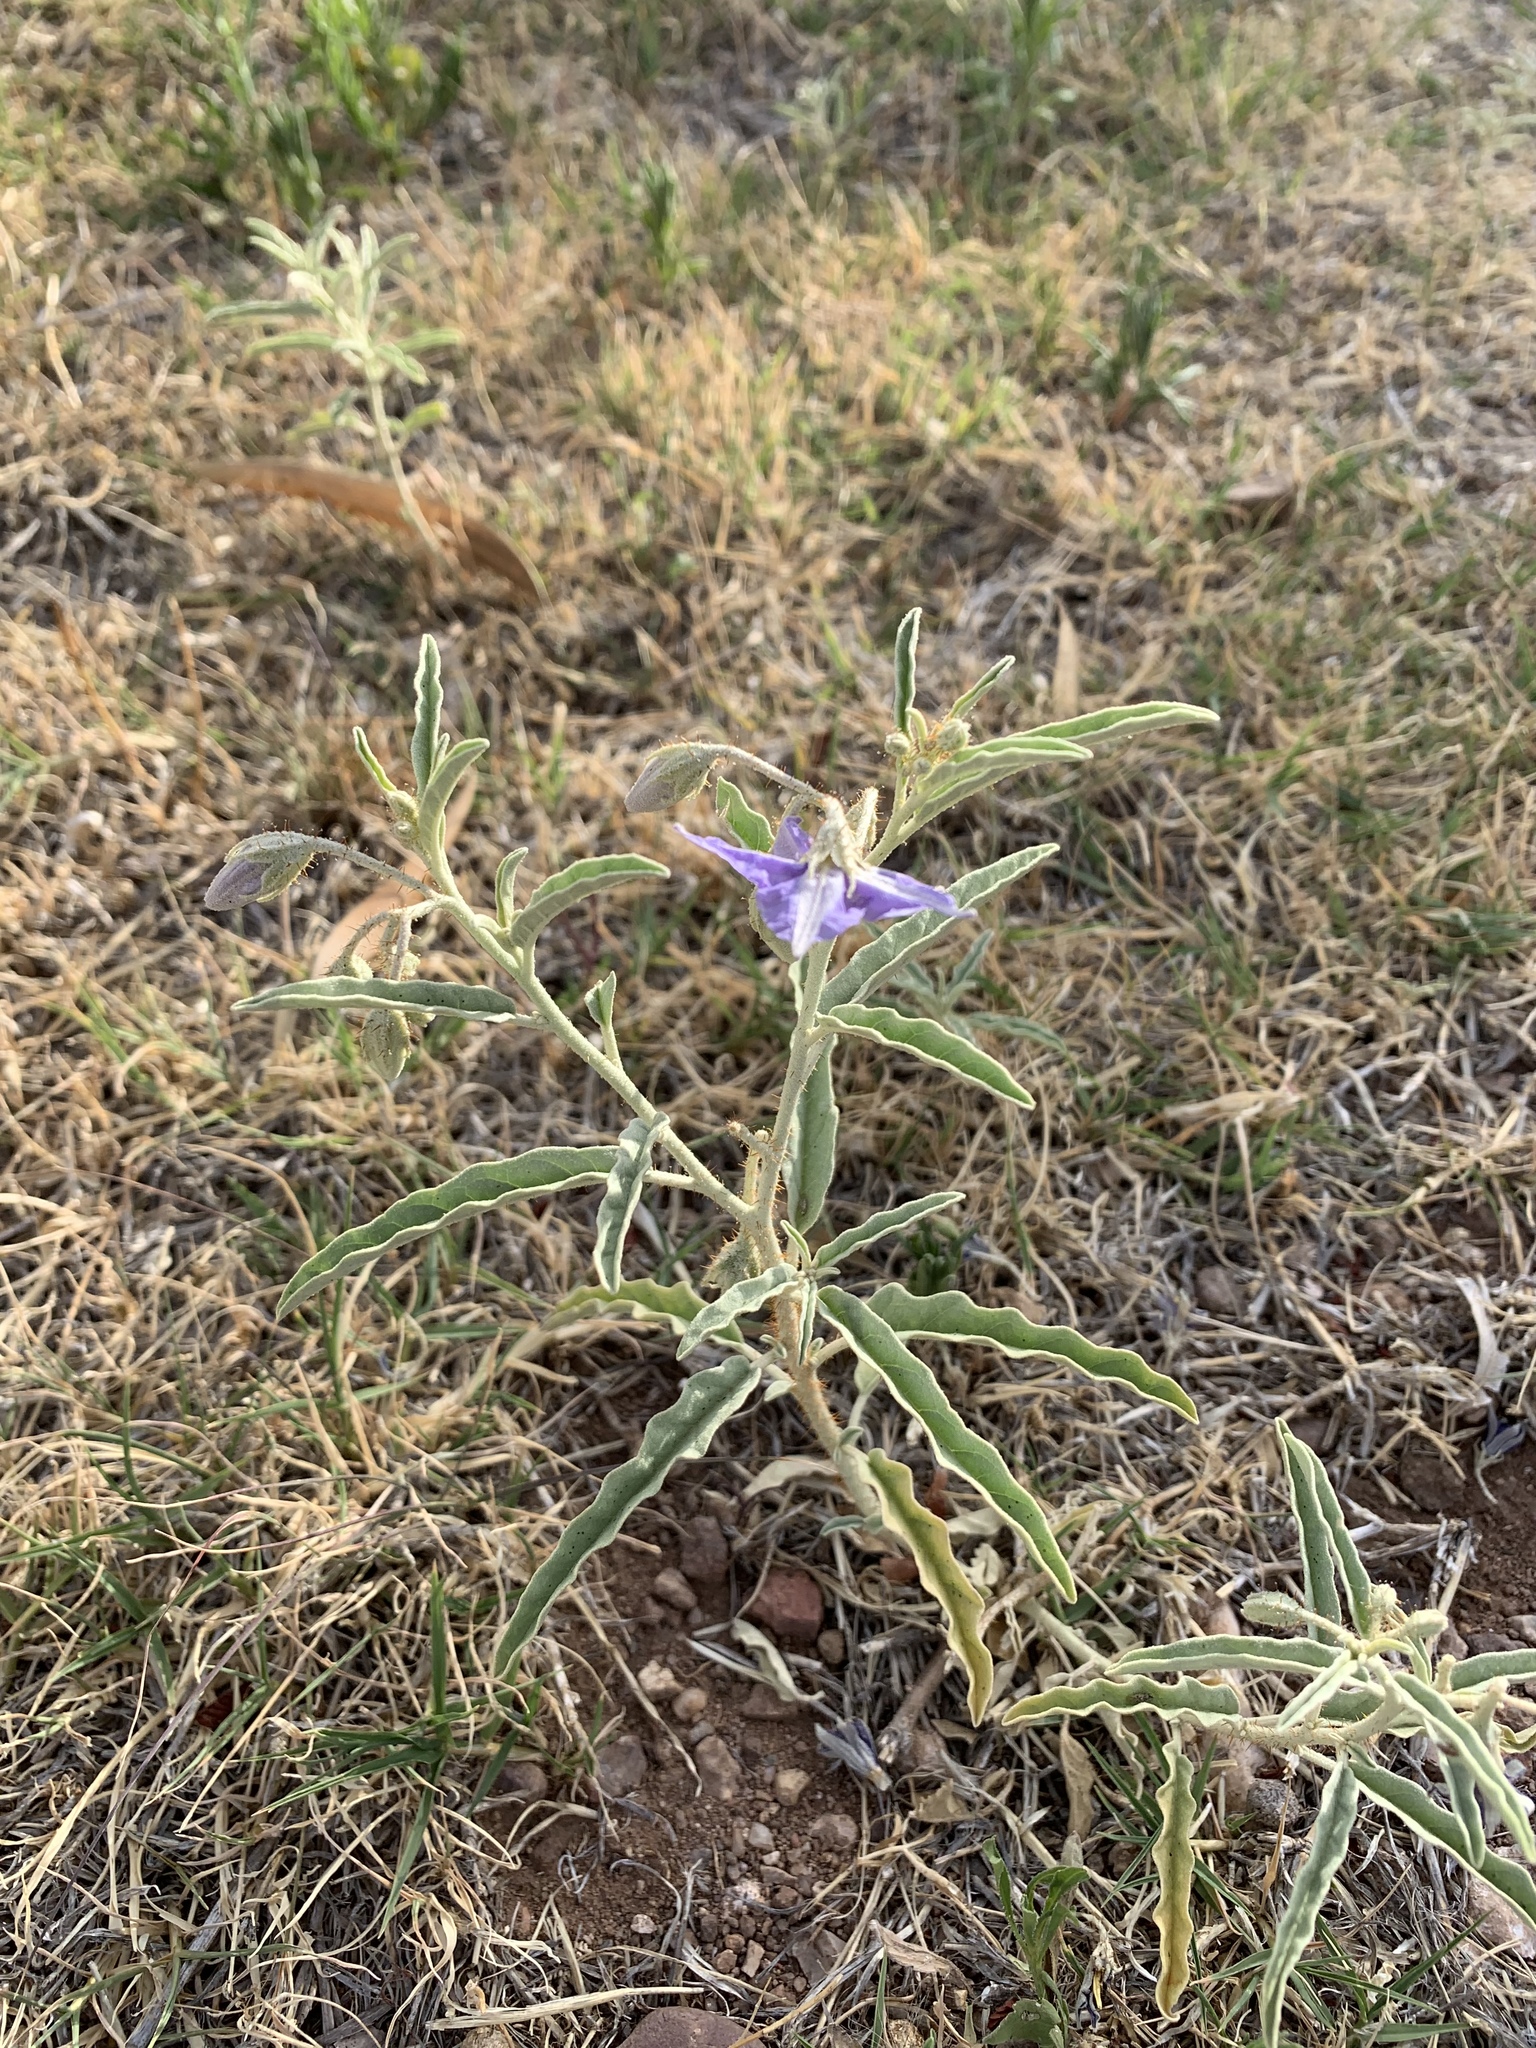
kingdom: Plantae
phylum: Tracheophyta
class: Magnoliopsida
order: Solanales
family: Solanaceae
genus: Solanum
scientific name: Solanum elaeagnifolium
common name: Silverleaf nightshade
